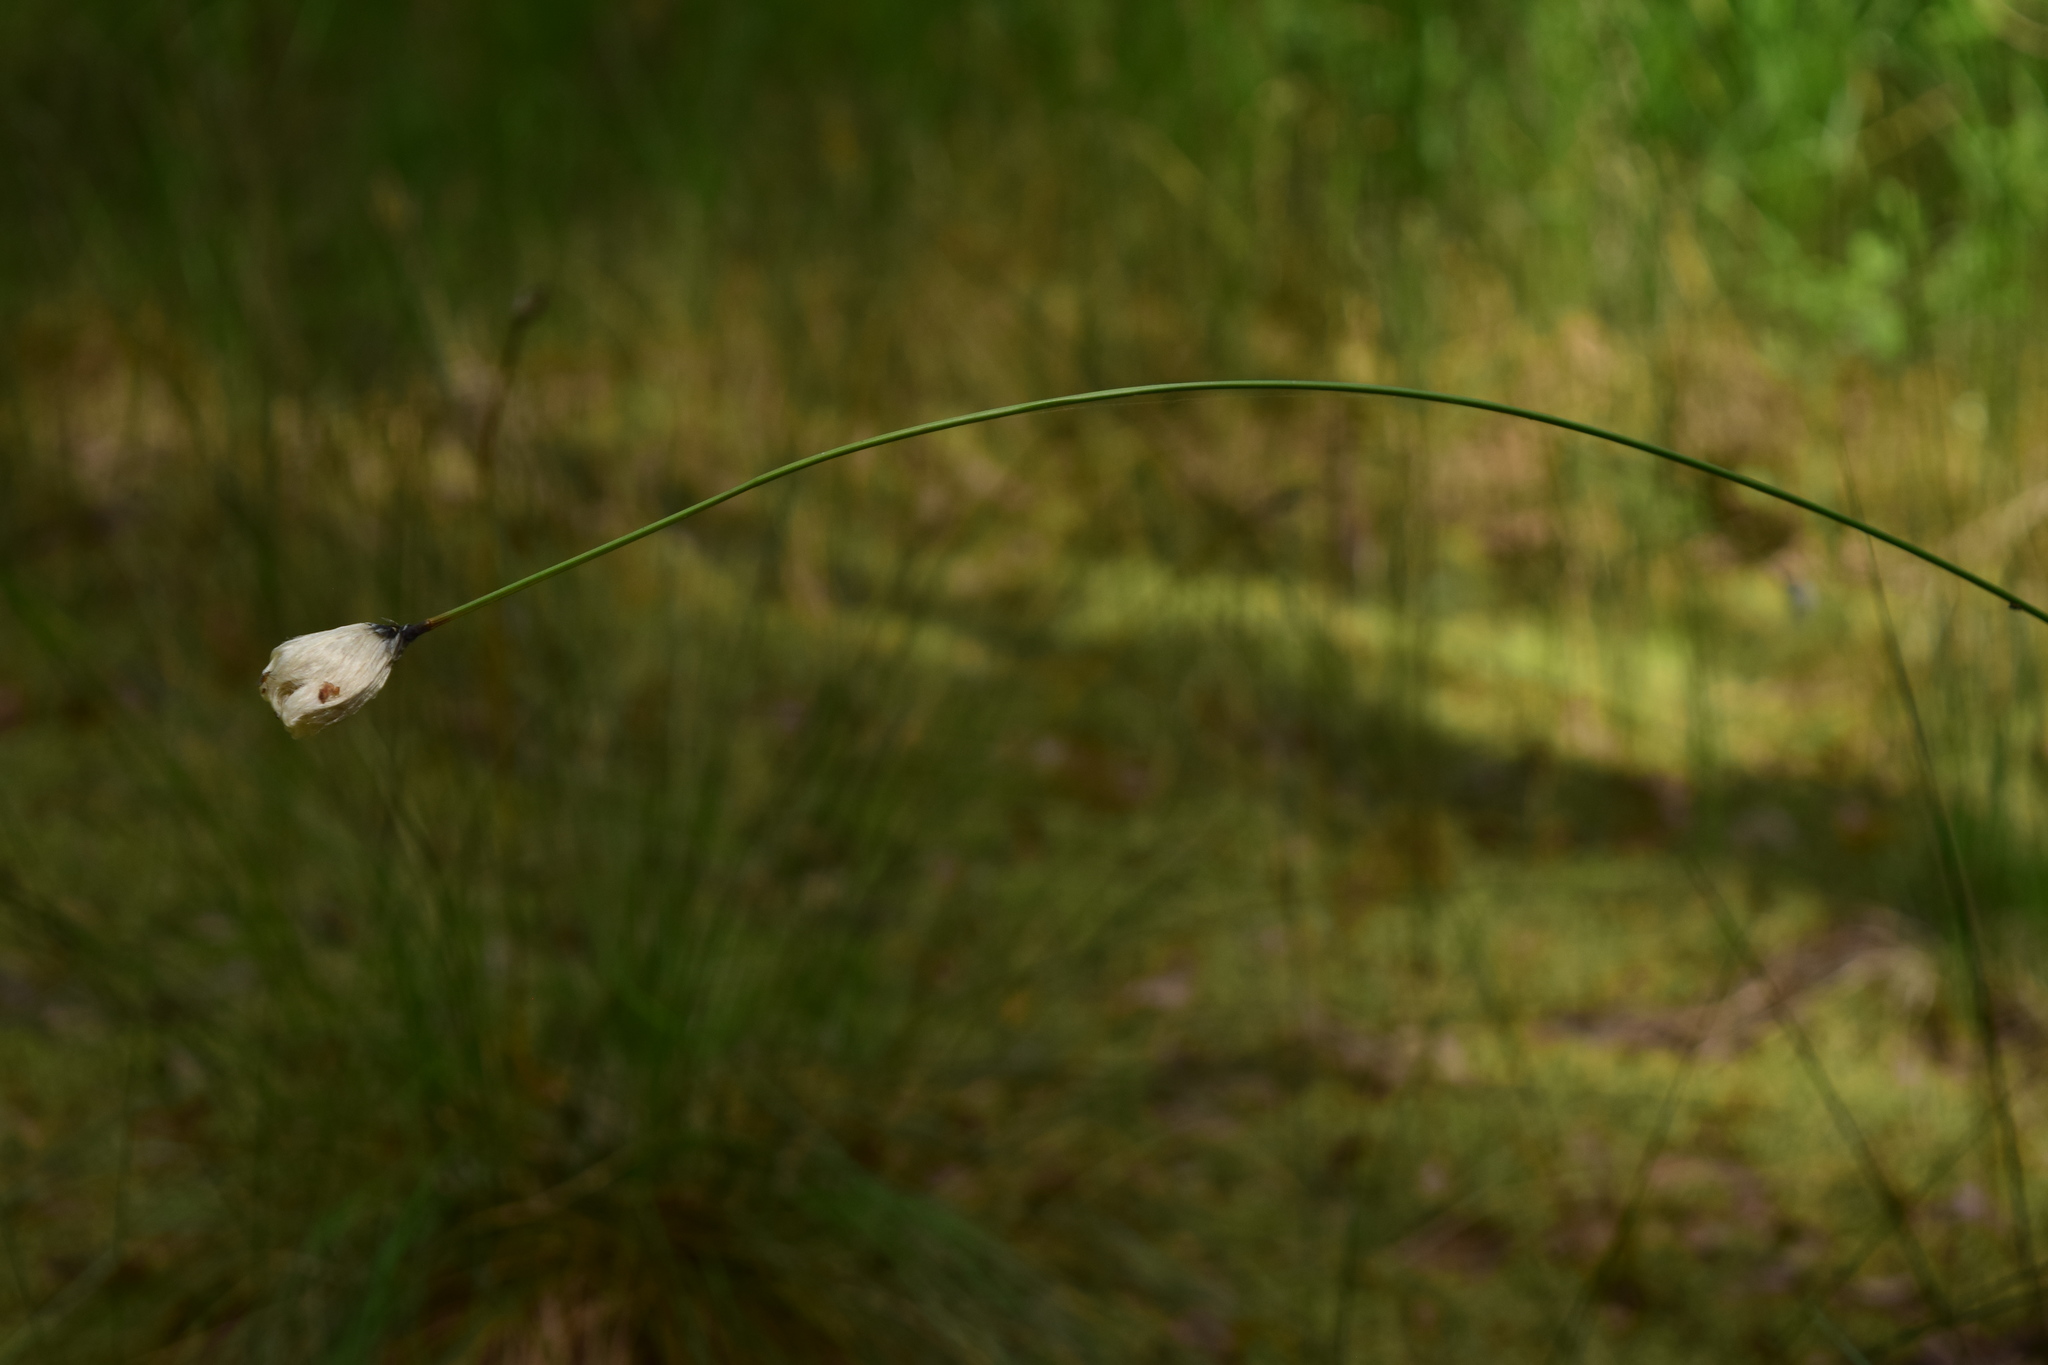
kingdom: Plantae
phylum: Tracheophyta
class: Liliopsida
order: Poales
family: Cyperaceae
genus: Eriophorum
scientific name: Eriophorum vaginatum
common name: Hare's-tail cottongrass
